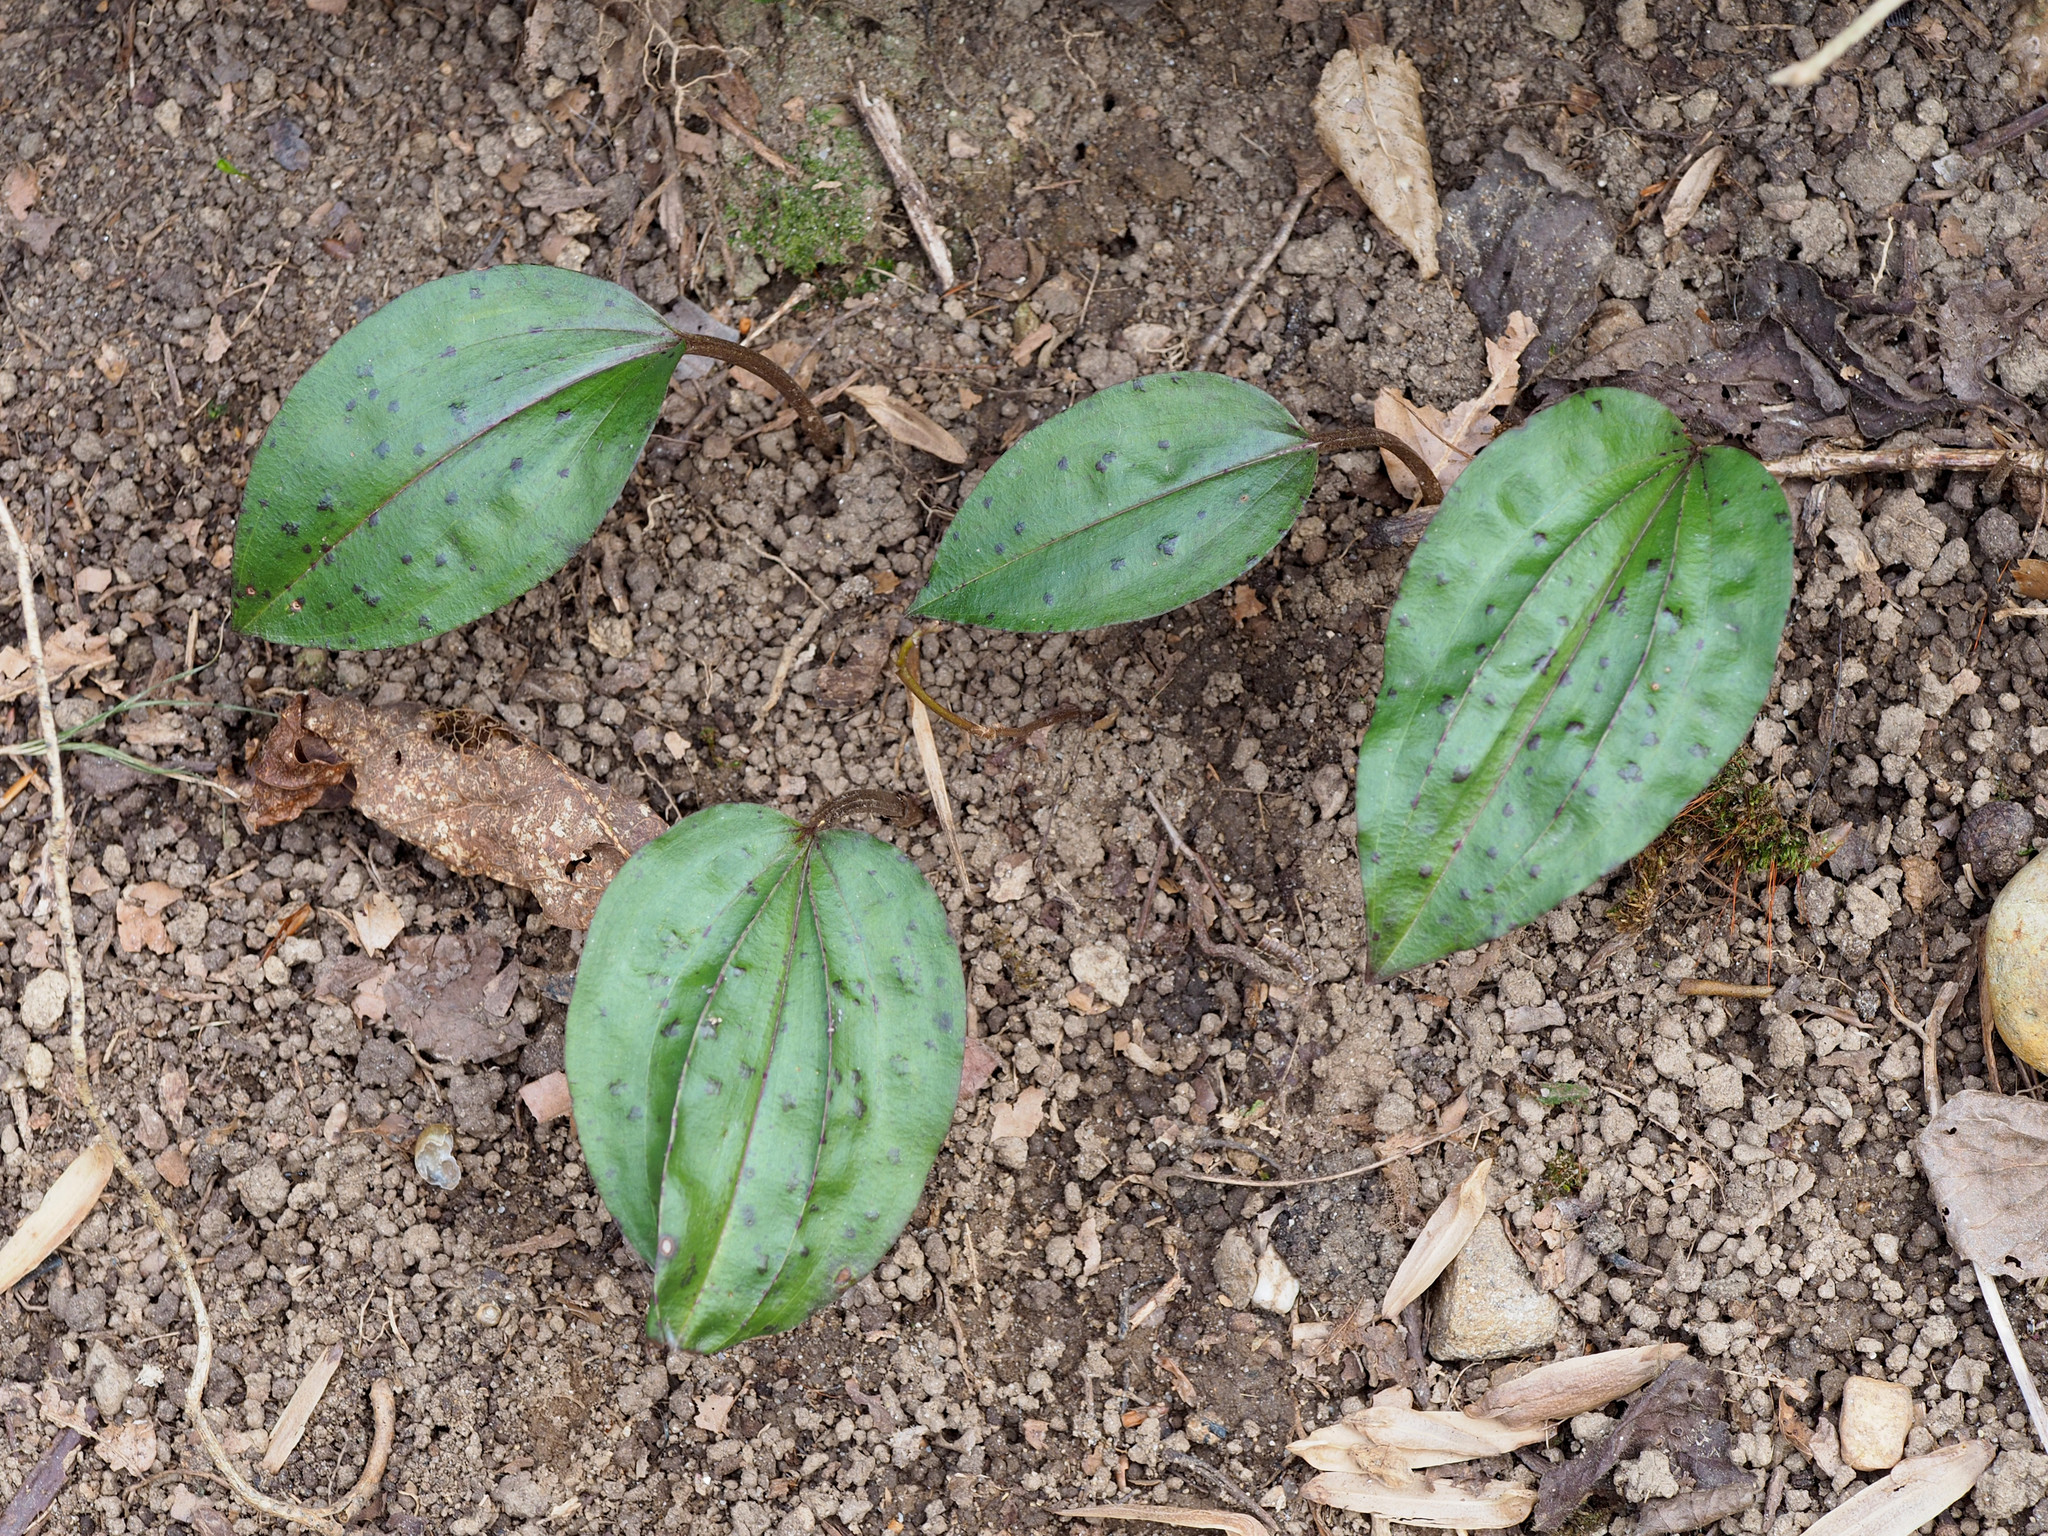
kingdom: Plantae
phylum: Tracheophyta
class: Liliopsida
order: Asparagales
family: Orchidaceae
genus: Tipularia
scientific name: Tipularia discolor
